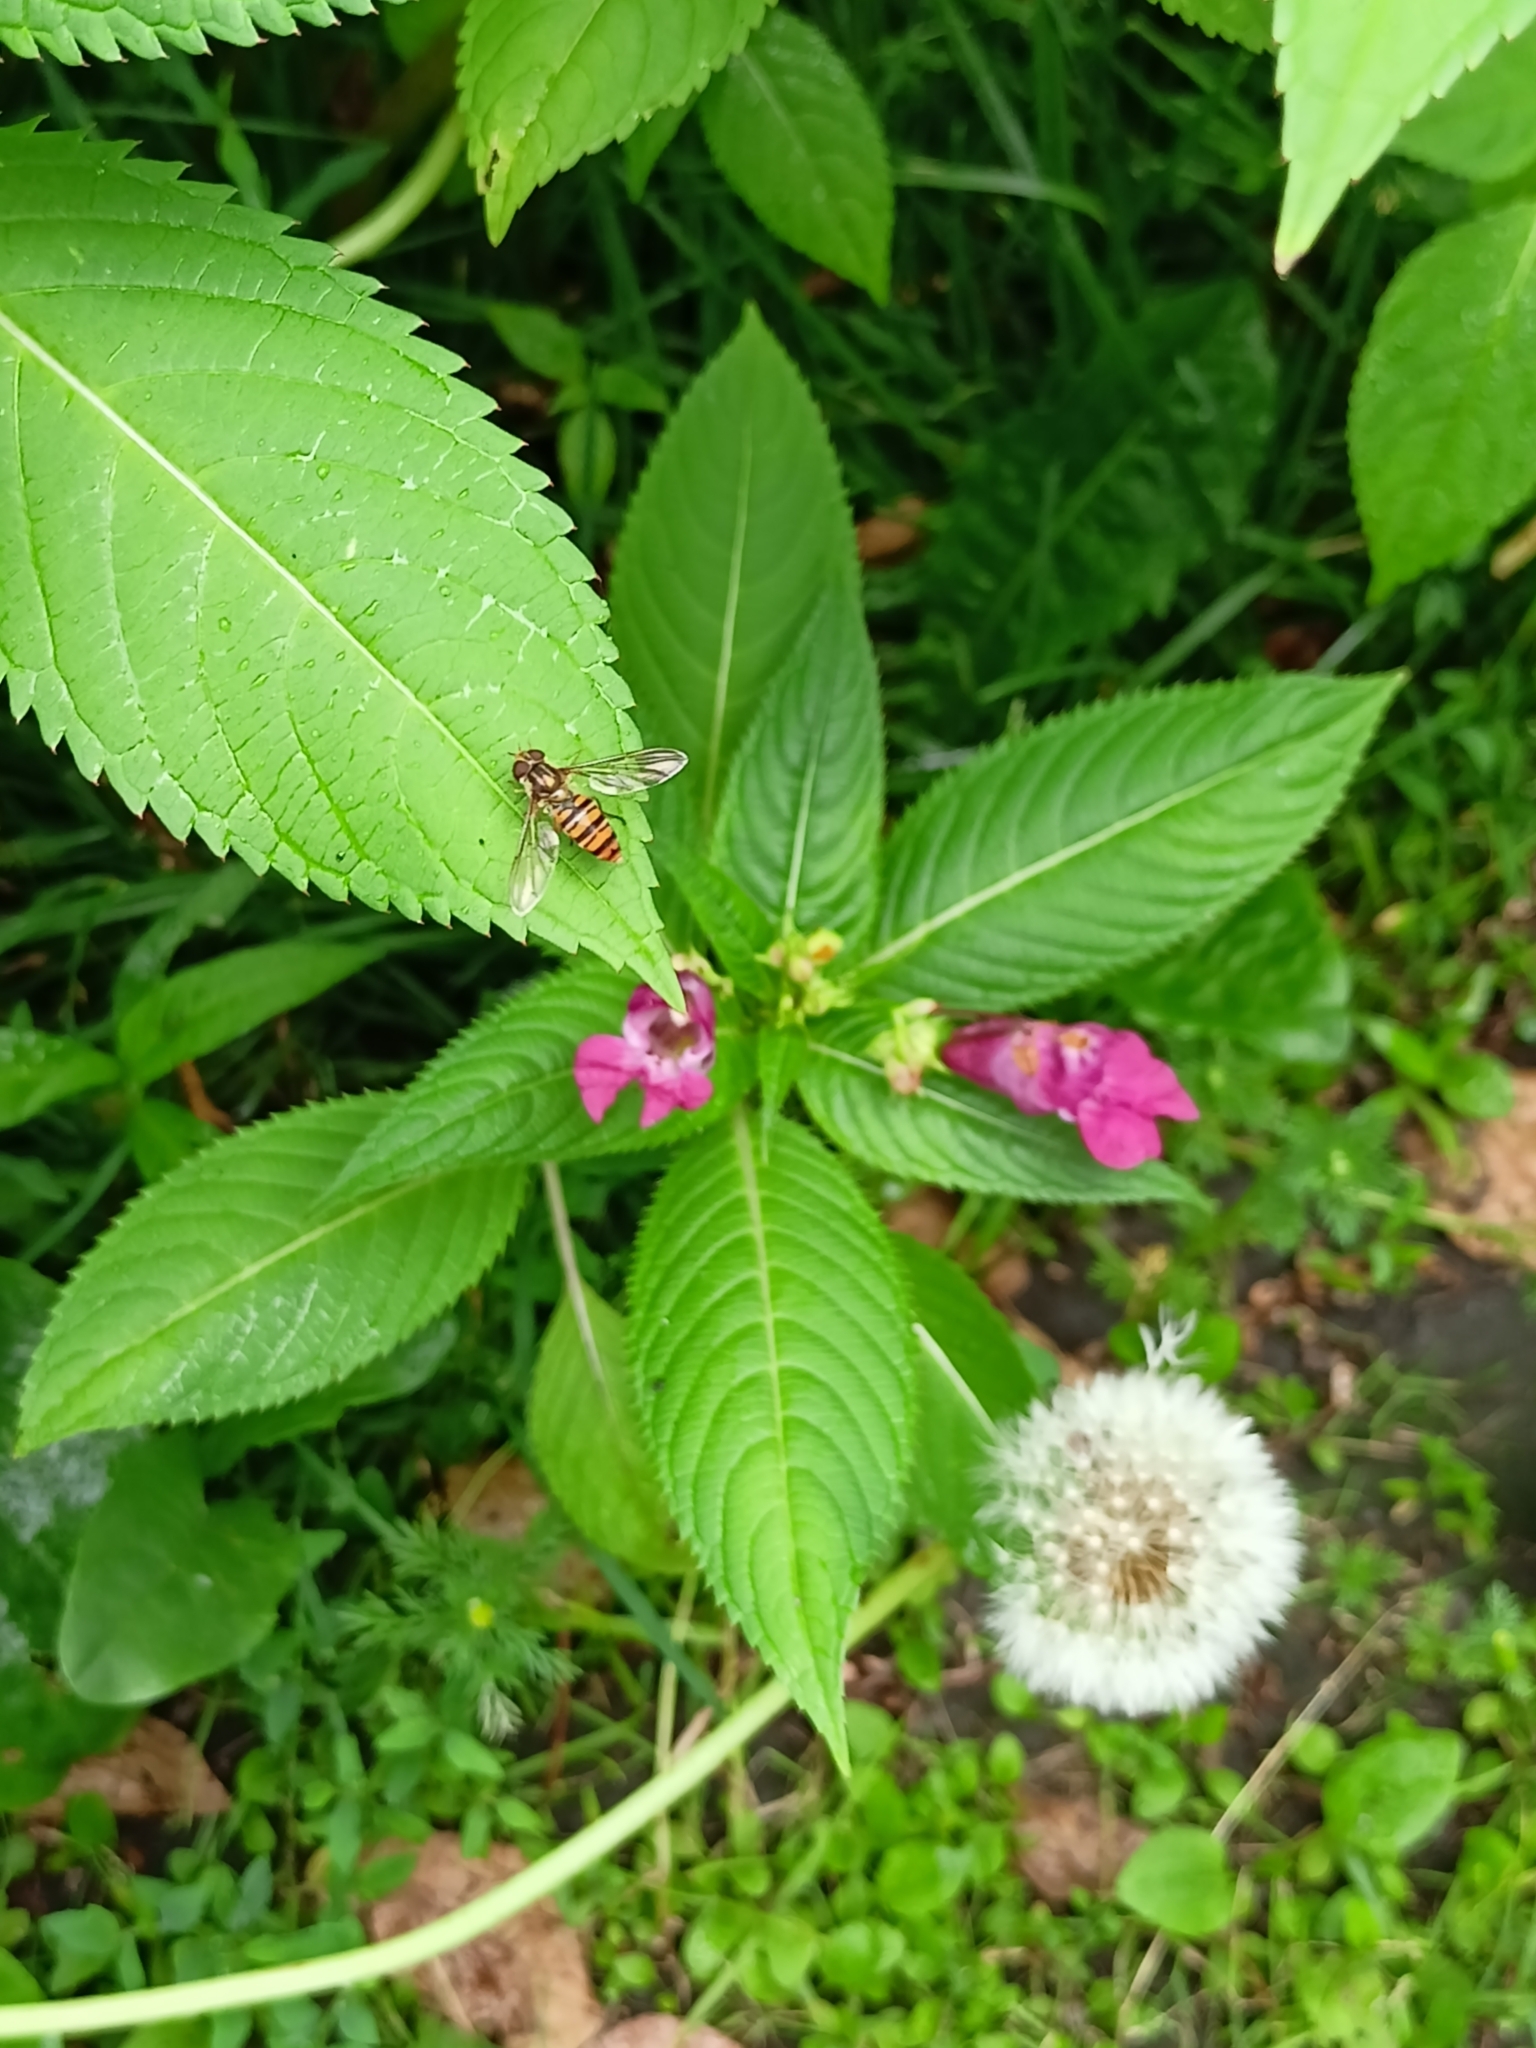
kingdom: Animalia
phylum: Arthropoda
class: Insecta
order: Diptera
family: Syrphidae
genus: Episyrphus
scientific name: Episyrphus balteatus
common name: Marmalade hoverfly
